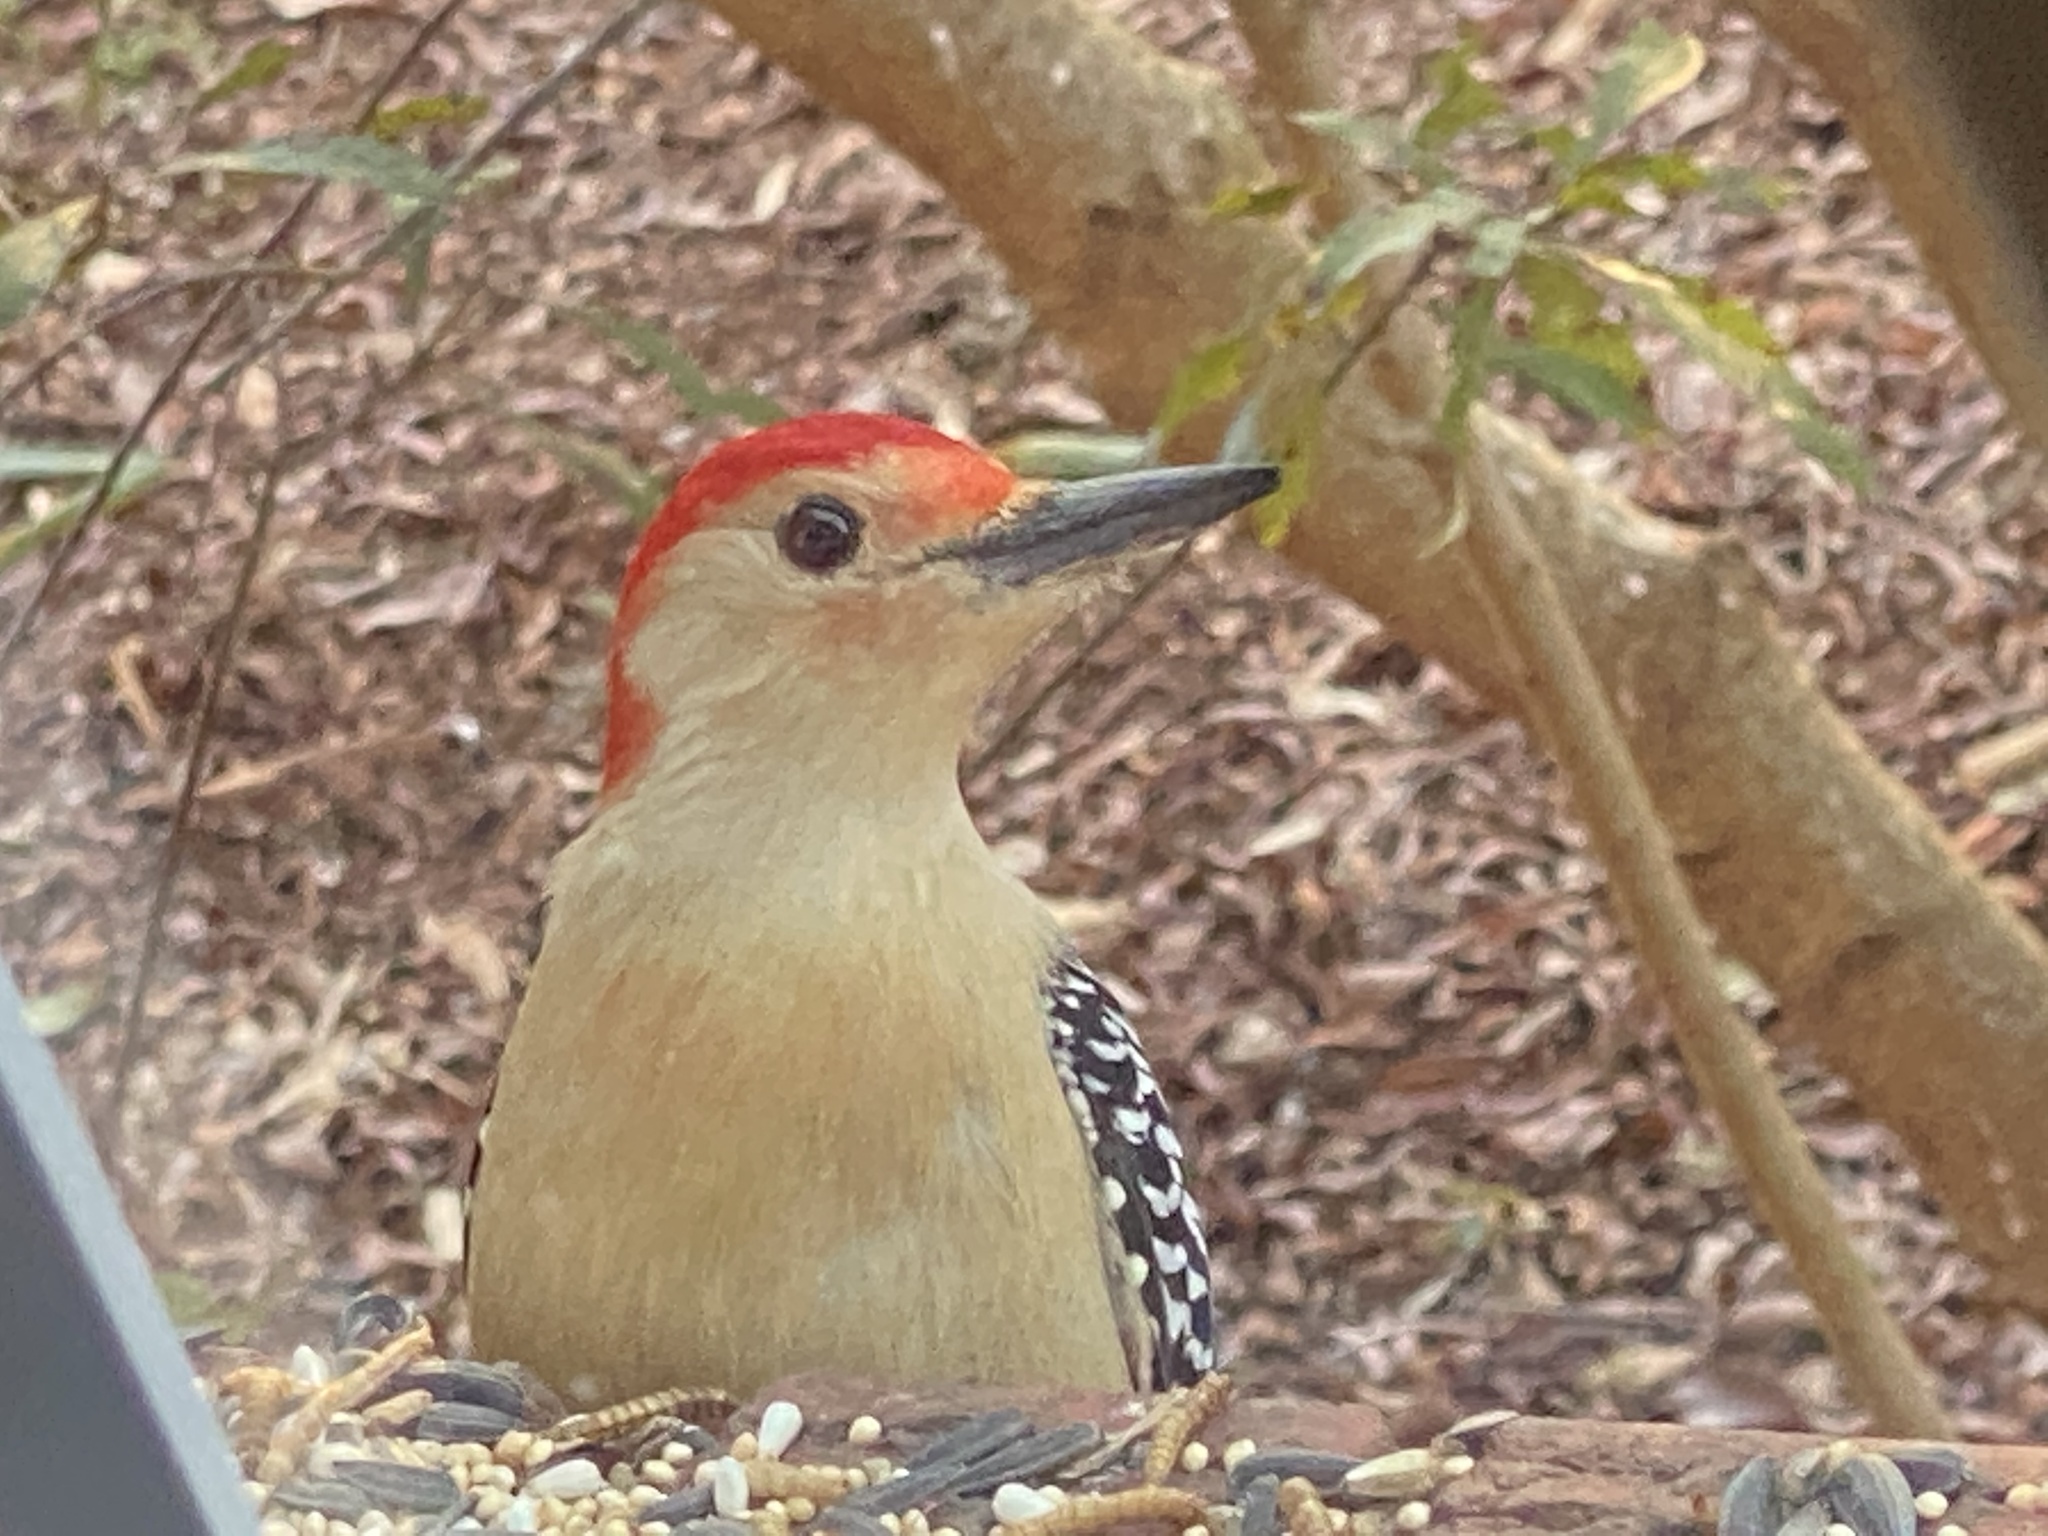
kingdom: Animalia
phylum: Chordata
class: Aves
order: Piciformes
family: Picidae
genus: Melanerpes
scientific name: Melanerpes carolinus
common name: Red-bellied woodpecker
